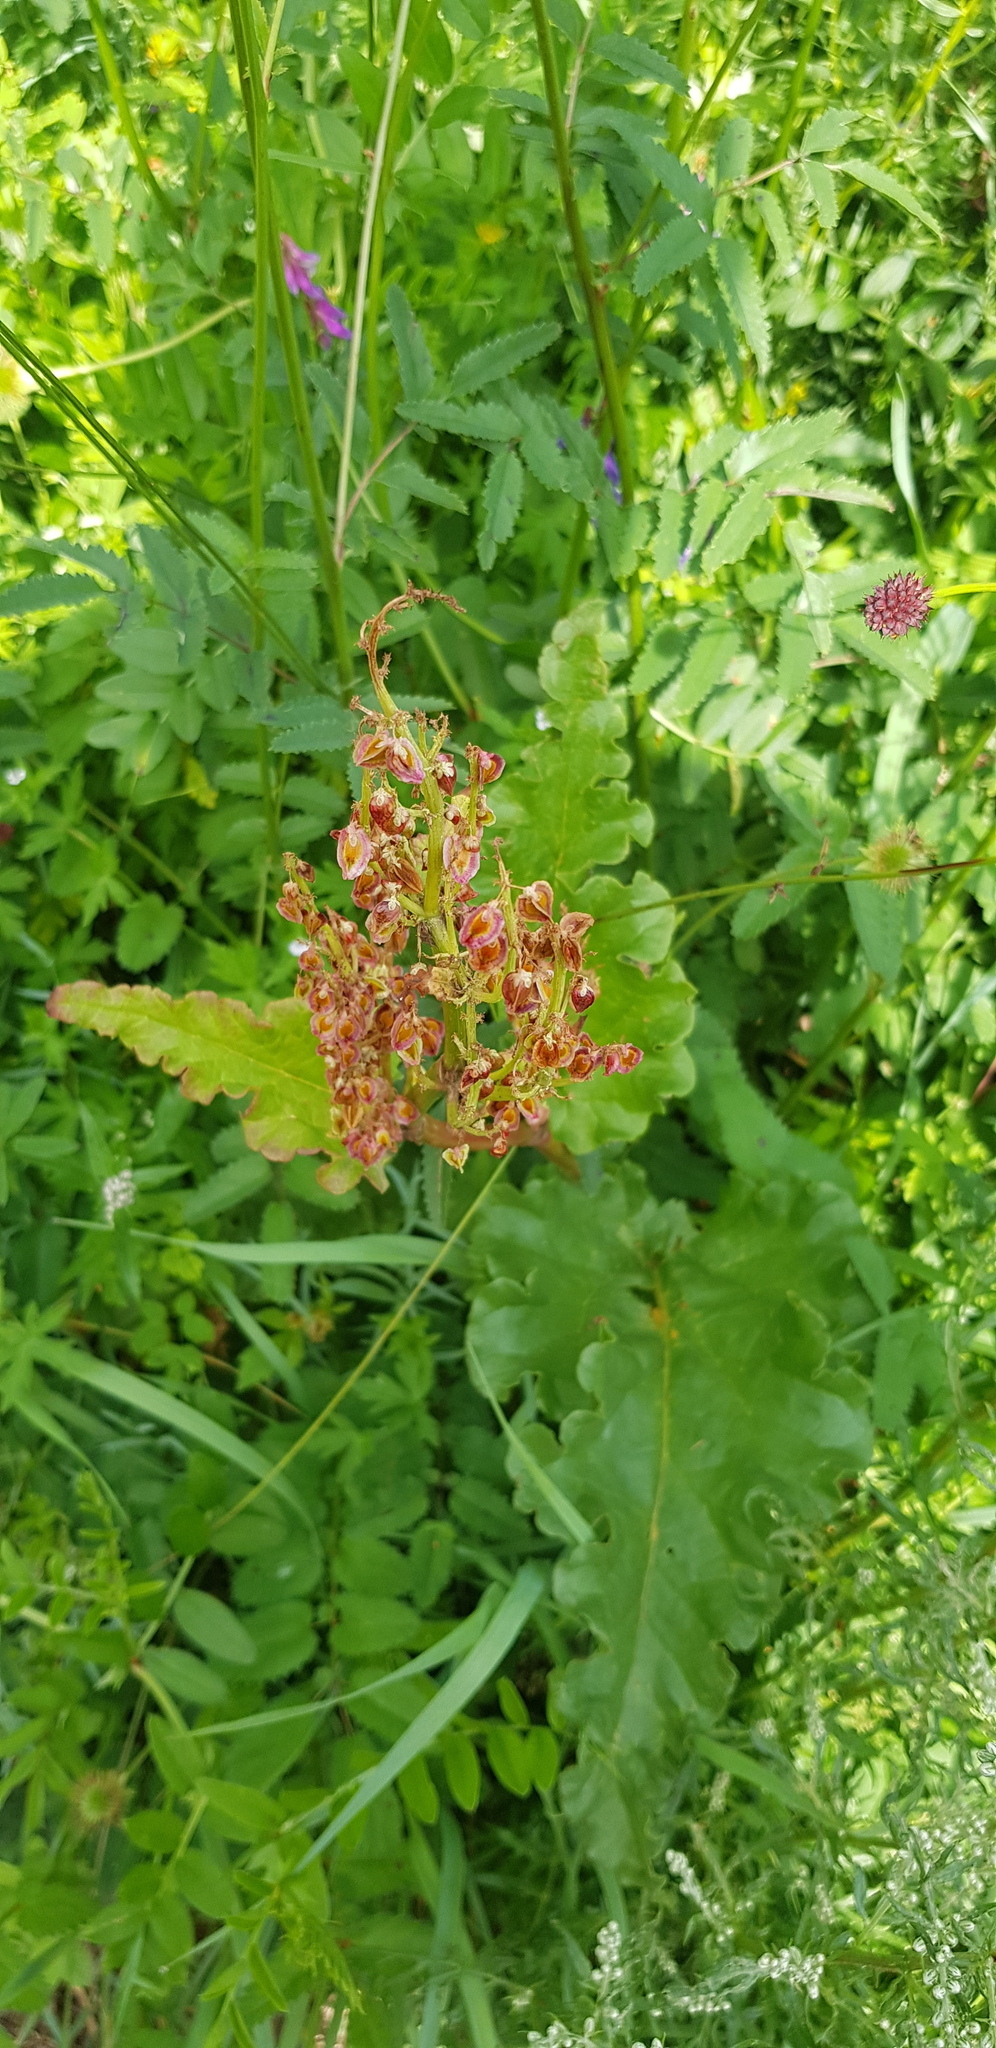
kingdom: Plantae
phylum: Tracheophyta
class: Magnoliopsida
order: Caryophyllales
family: Polygonaceae
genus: Rheum
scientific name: Rheum rhabarbarum
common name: Garden rhubarb
